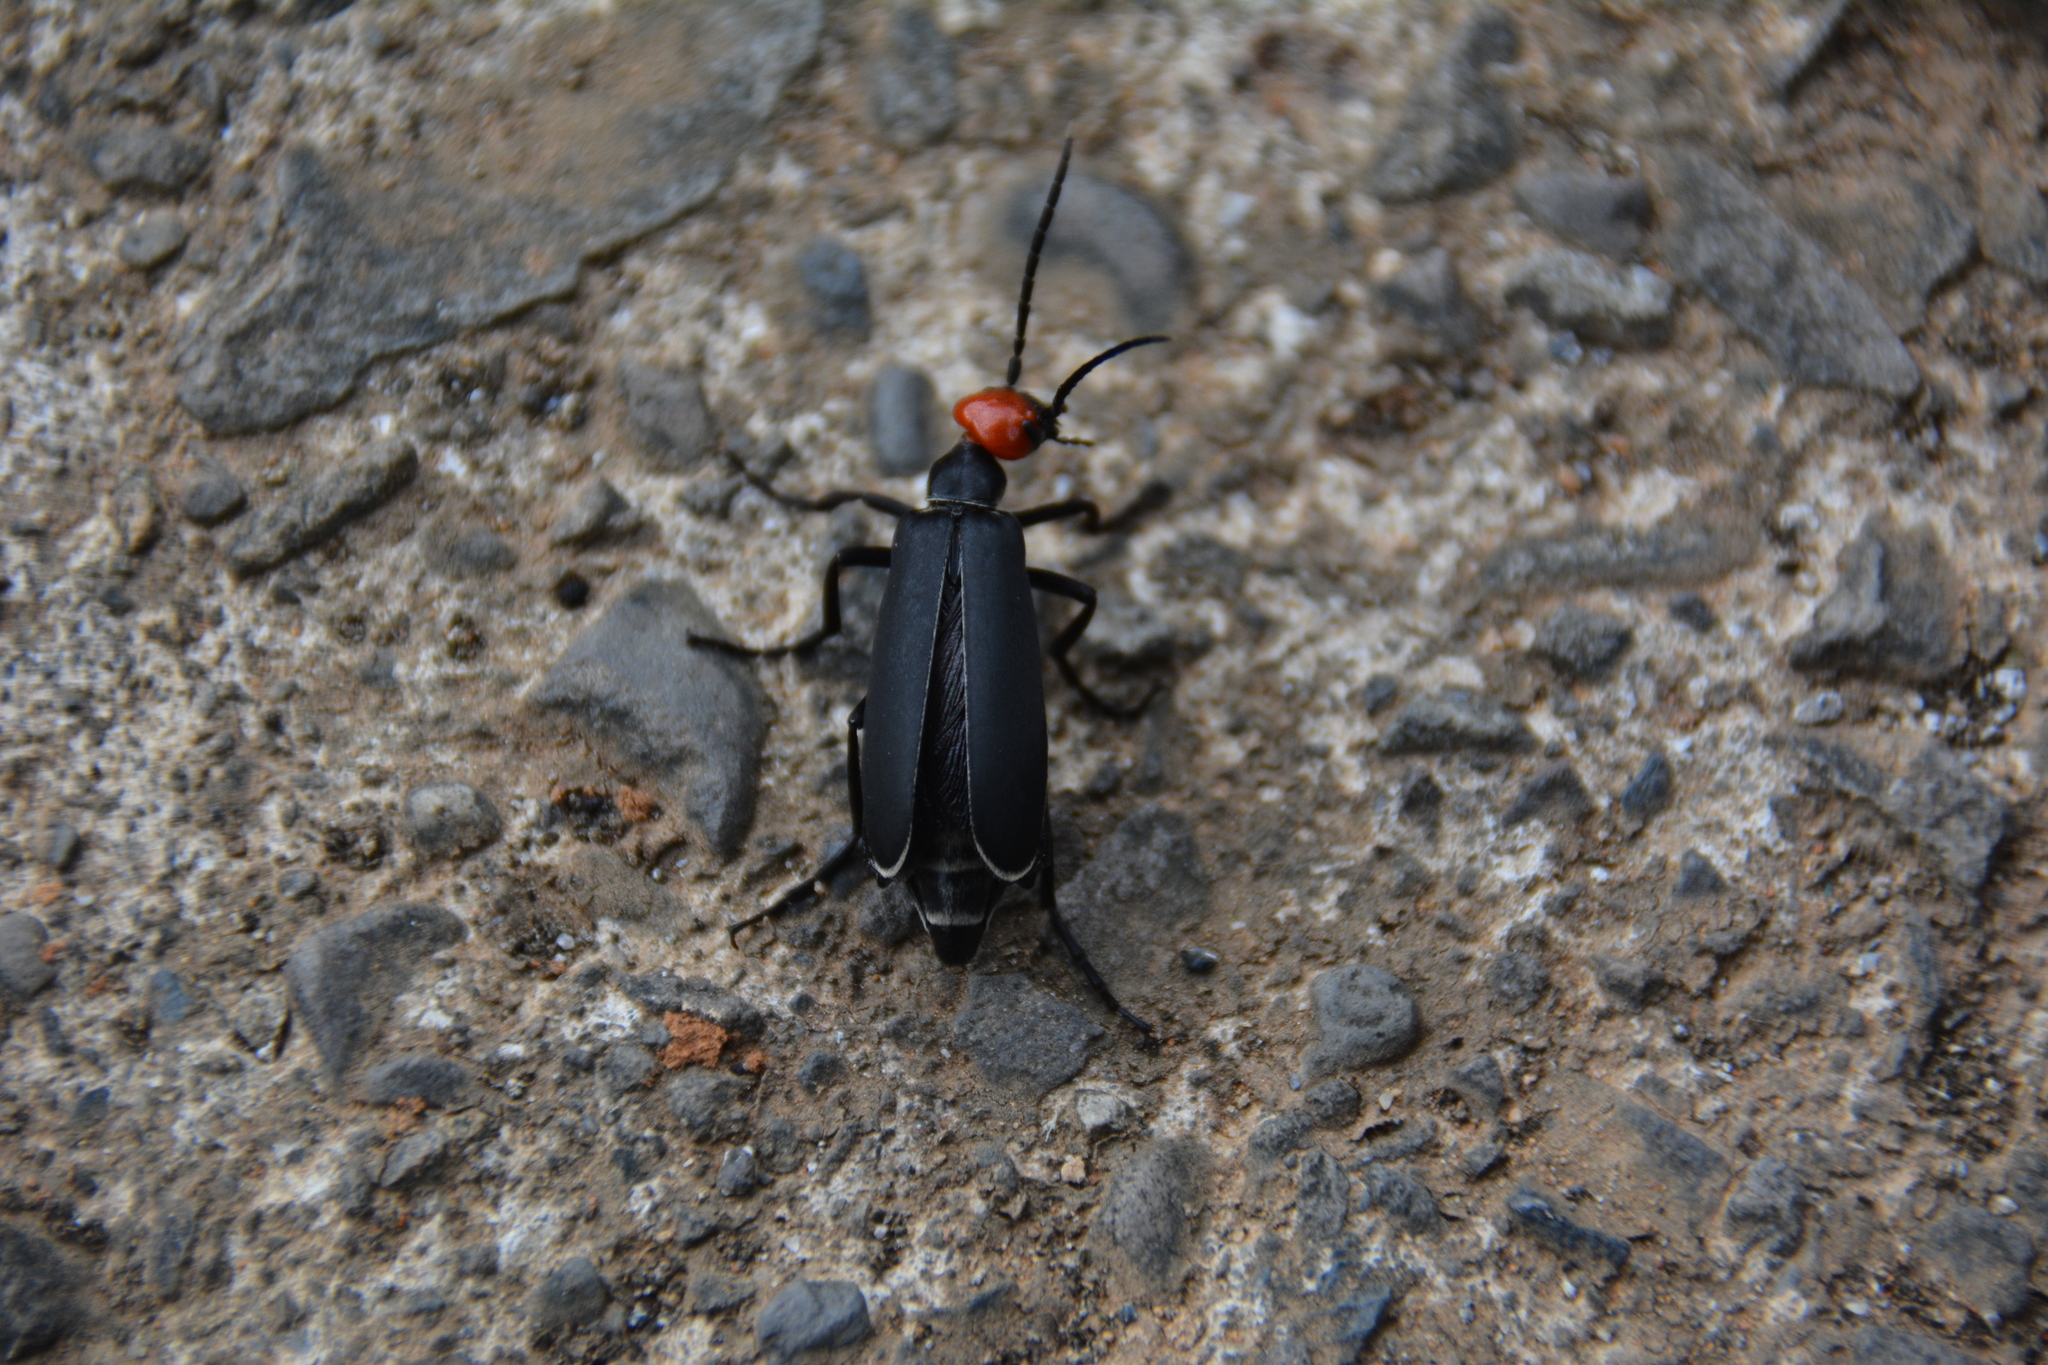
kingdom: Animalia
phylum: Arthropoda
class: Insecta
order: Coleoptera
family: Meloidae
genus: Epicauta
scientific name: Epicauta hirticornis
